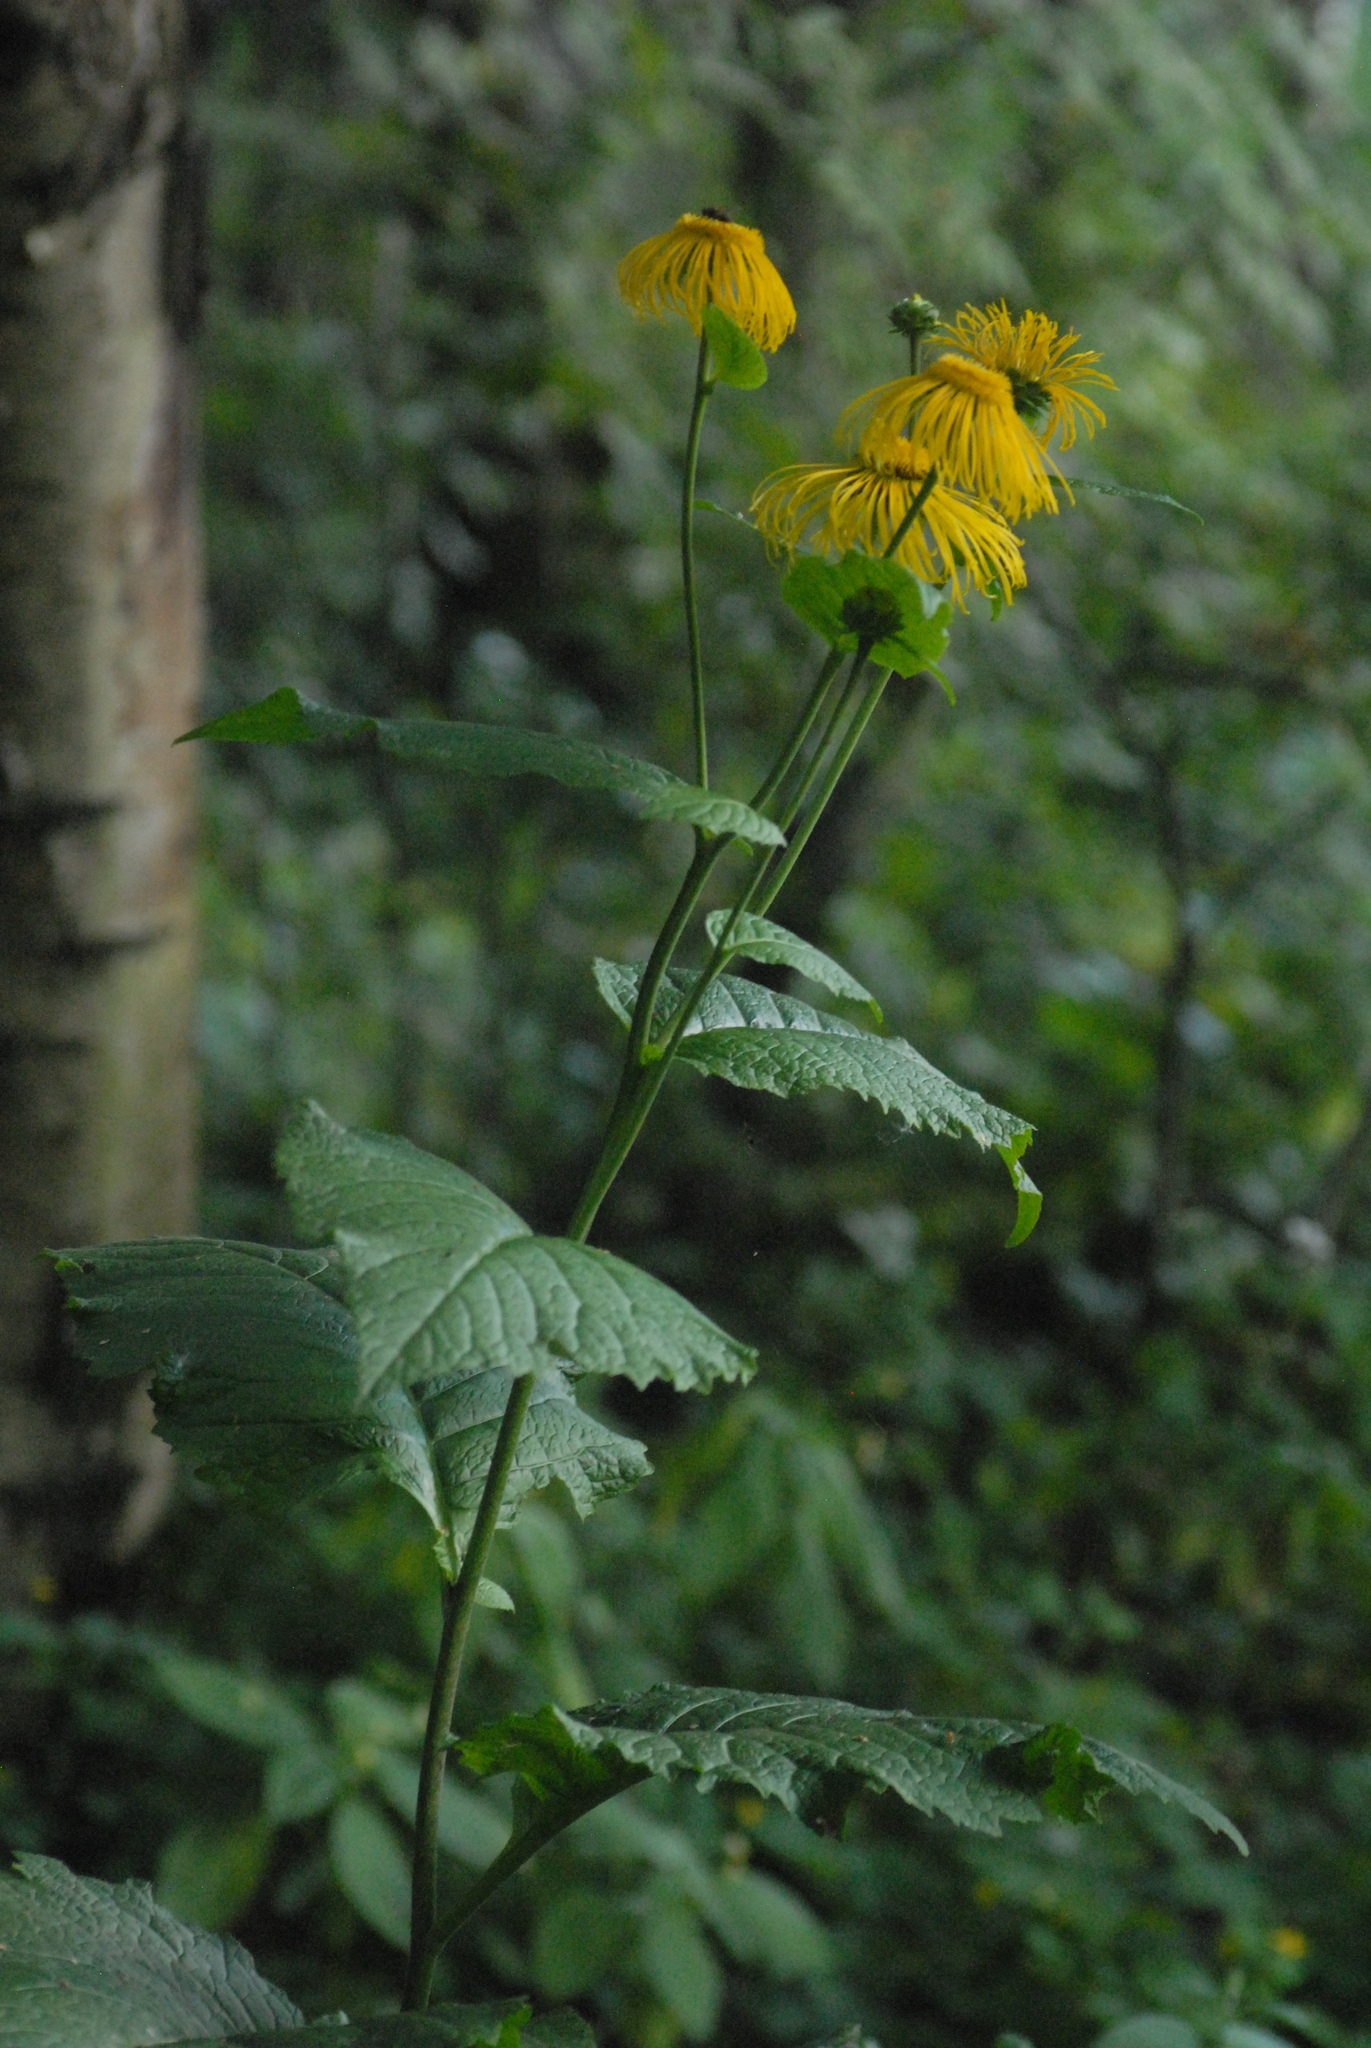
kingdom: Plantae
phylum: Tracheophyta
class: Magnoliopsida
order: Asterales
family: Asteraceae
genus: Telekia
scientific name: Telekia speciosa
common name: Yellow oxeye
